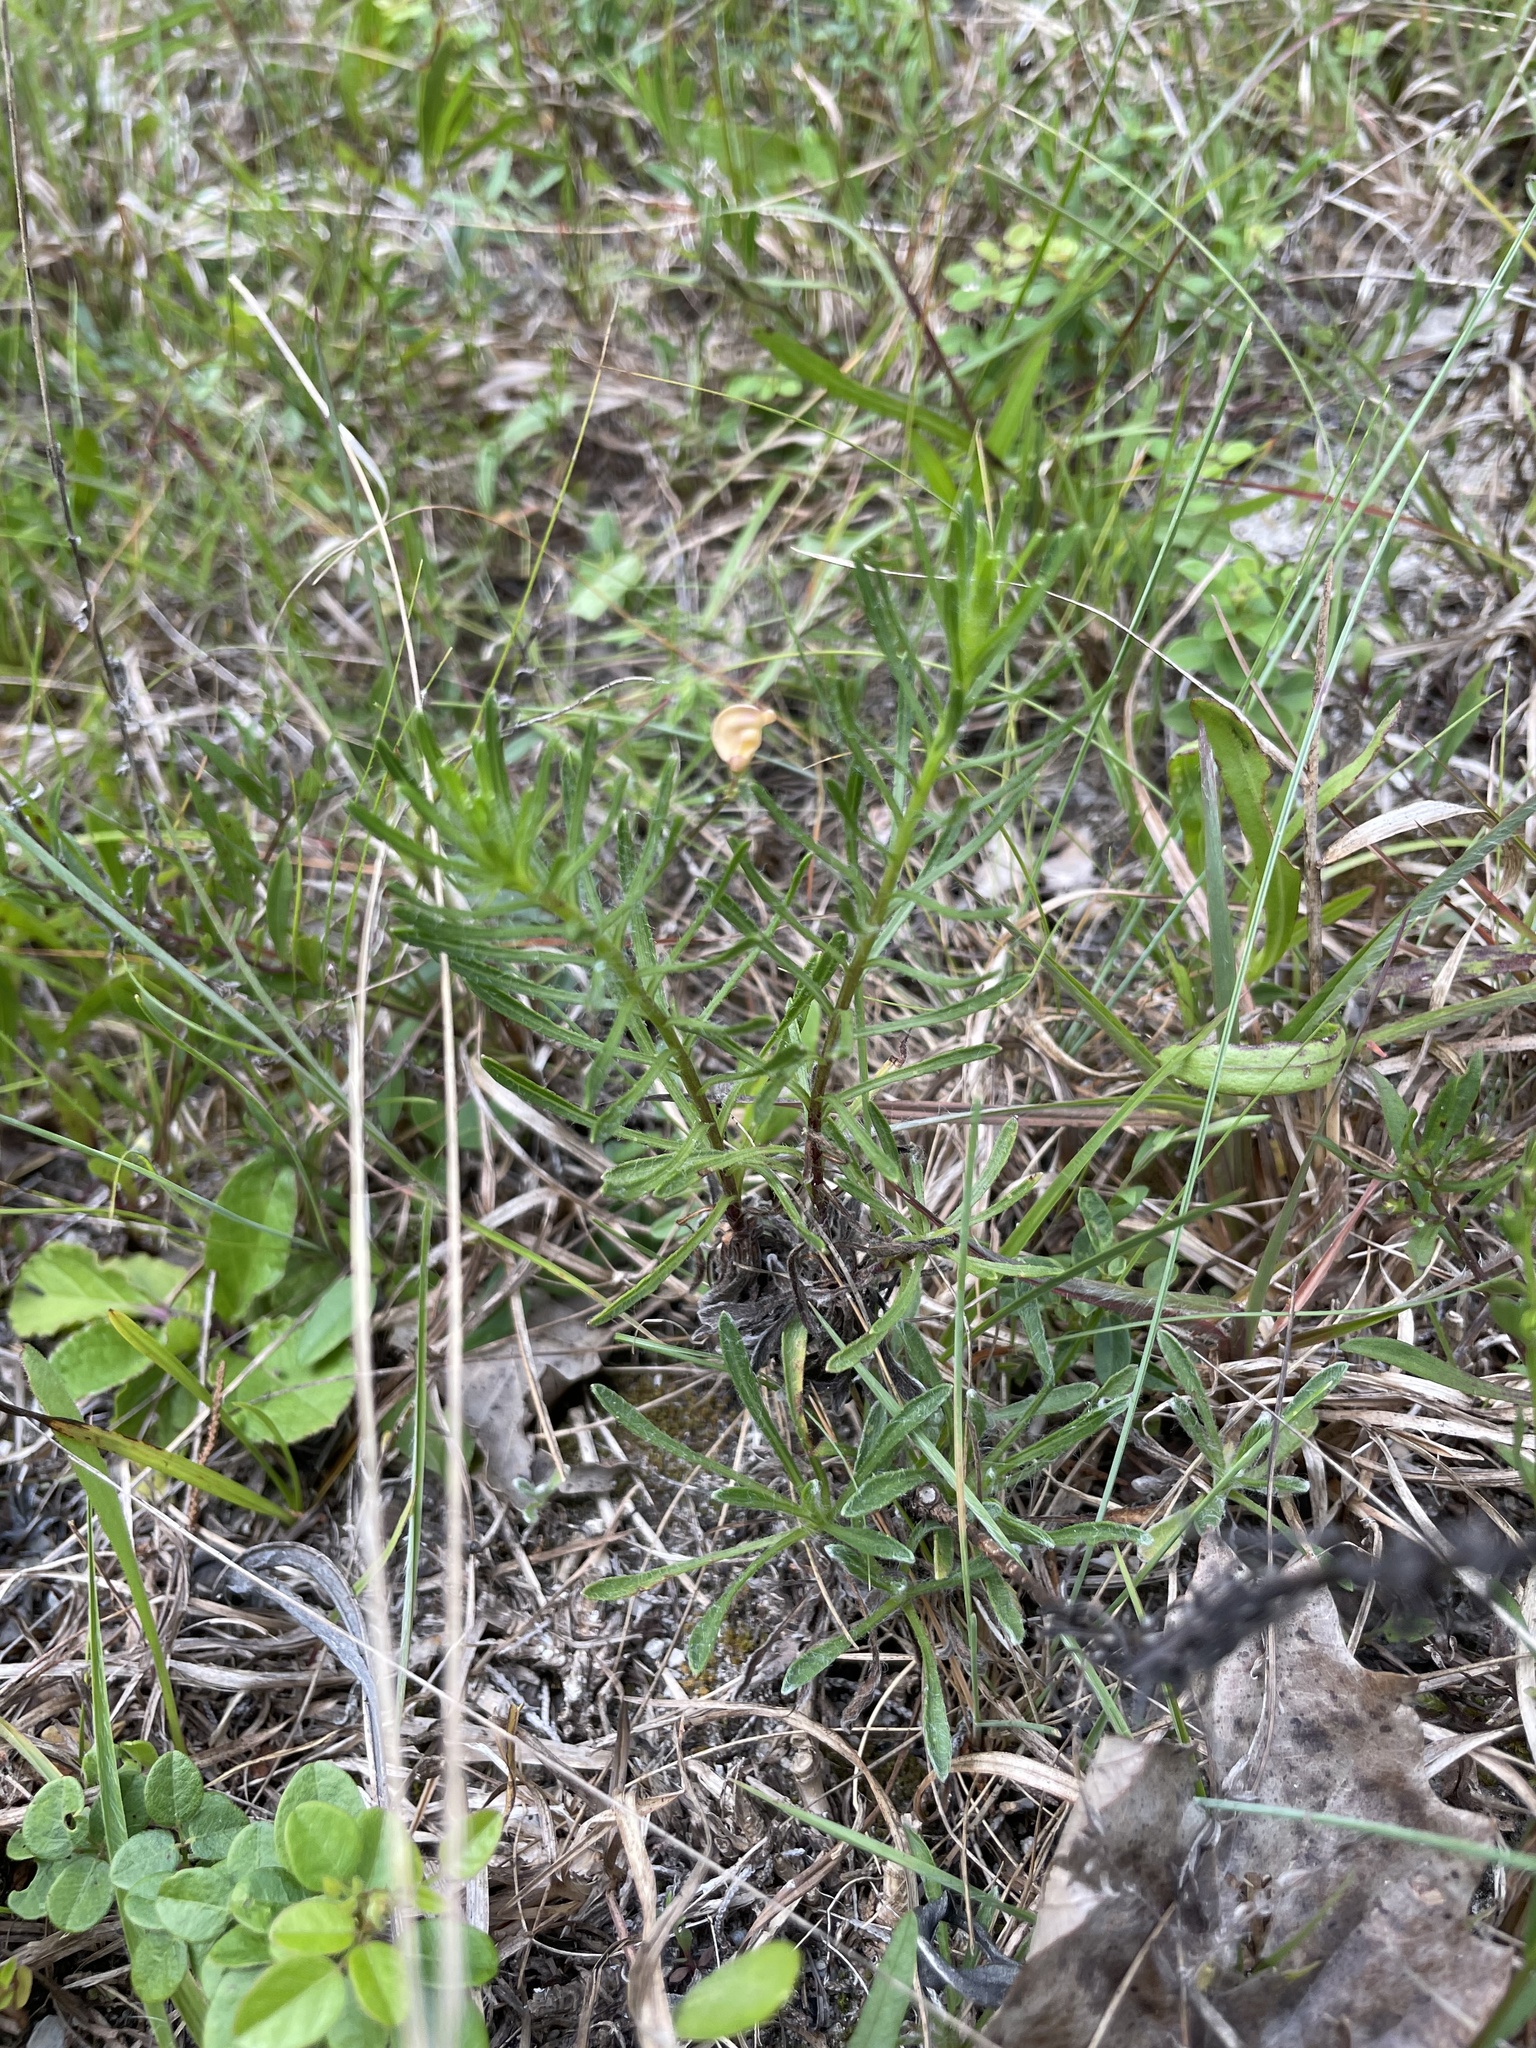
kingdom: Plantae
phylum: Tracheophyta
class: Magnoliopsida
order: Asterales
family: Asteraceae
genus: Chrysopsis
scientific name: Chrysopsis gossypina
